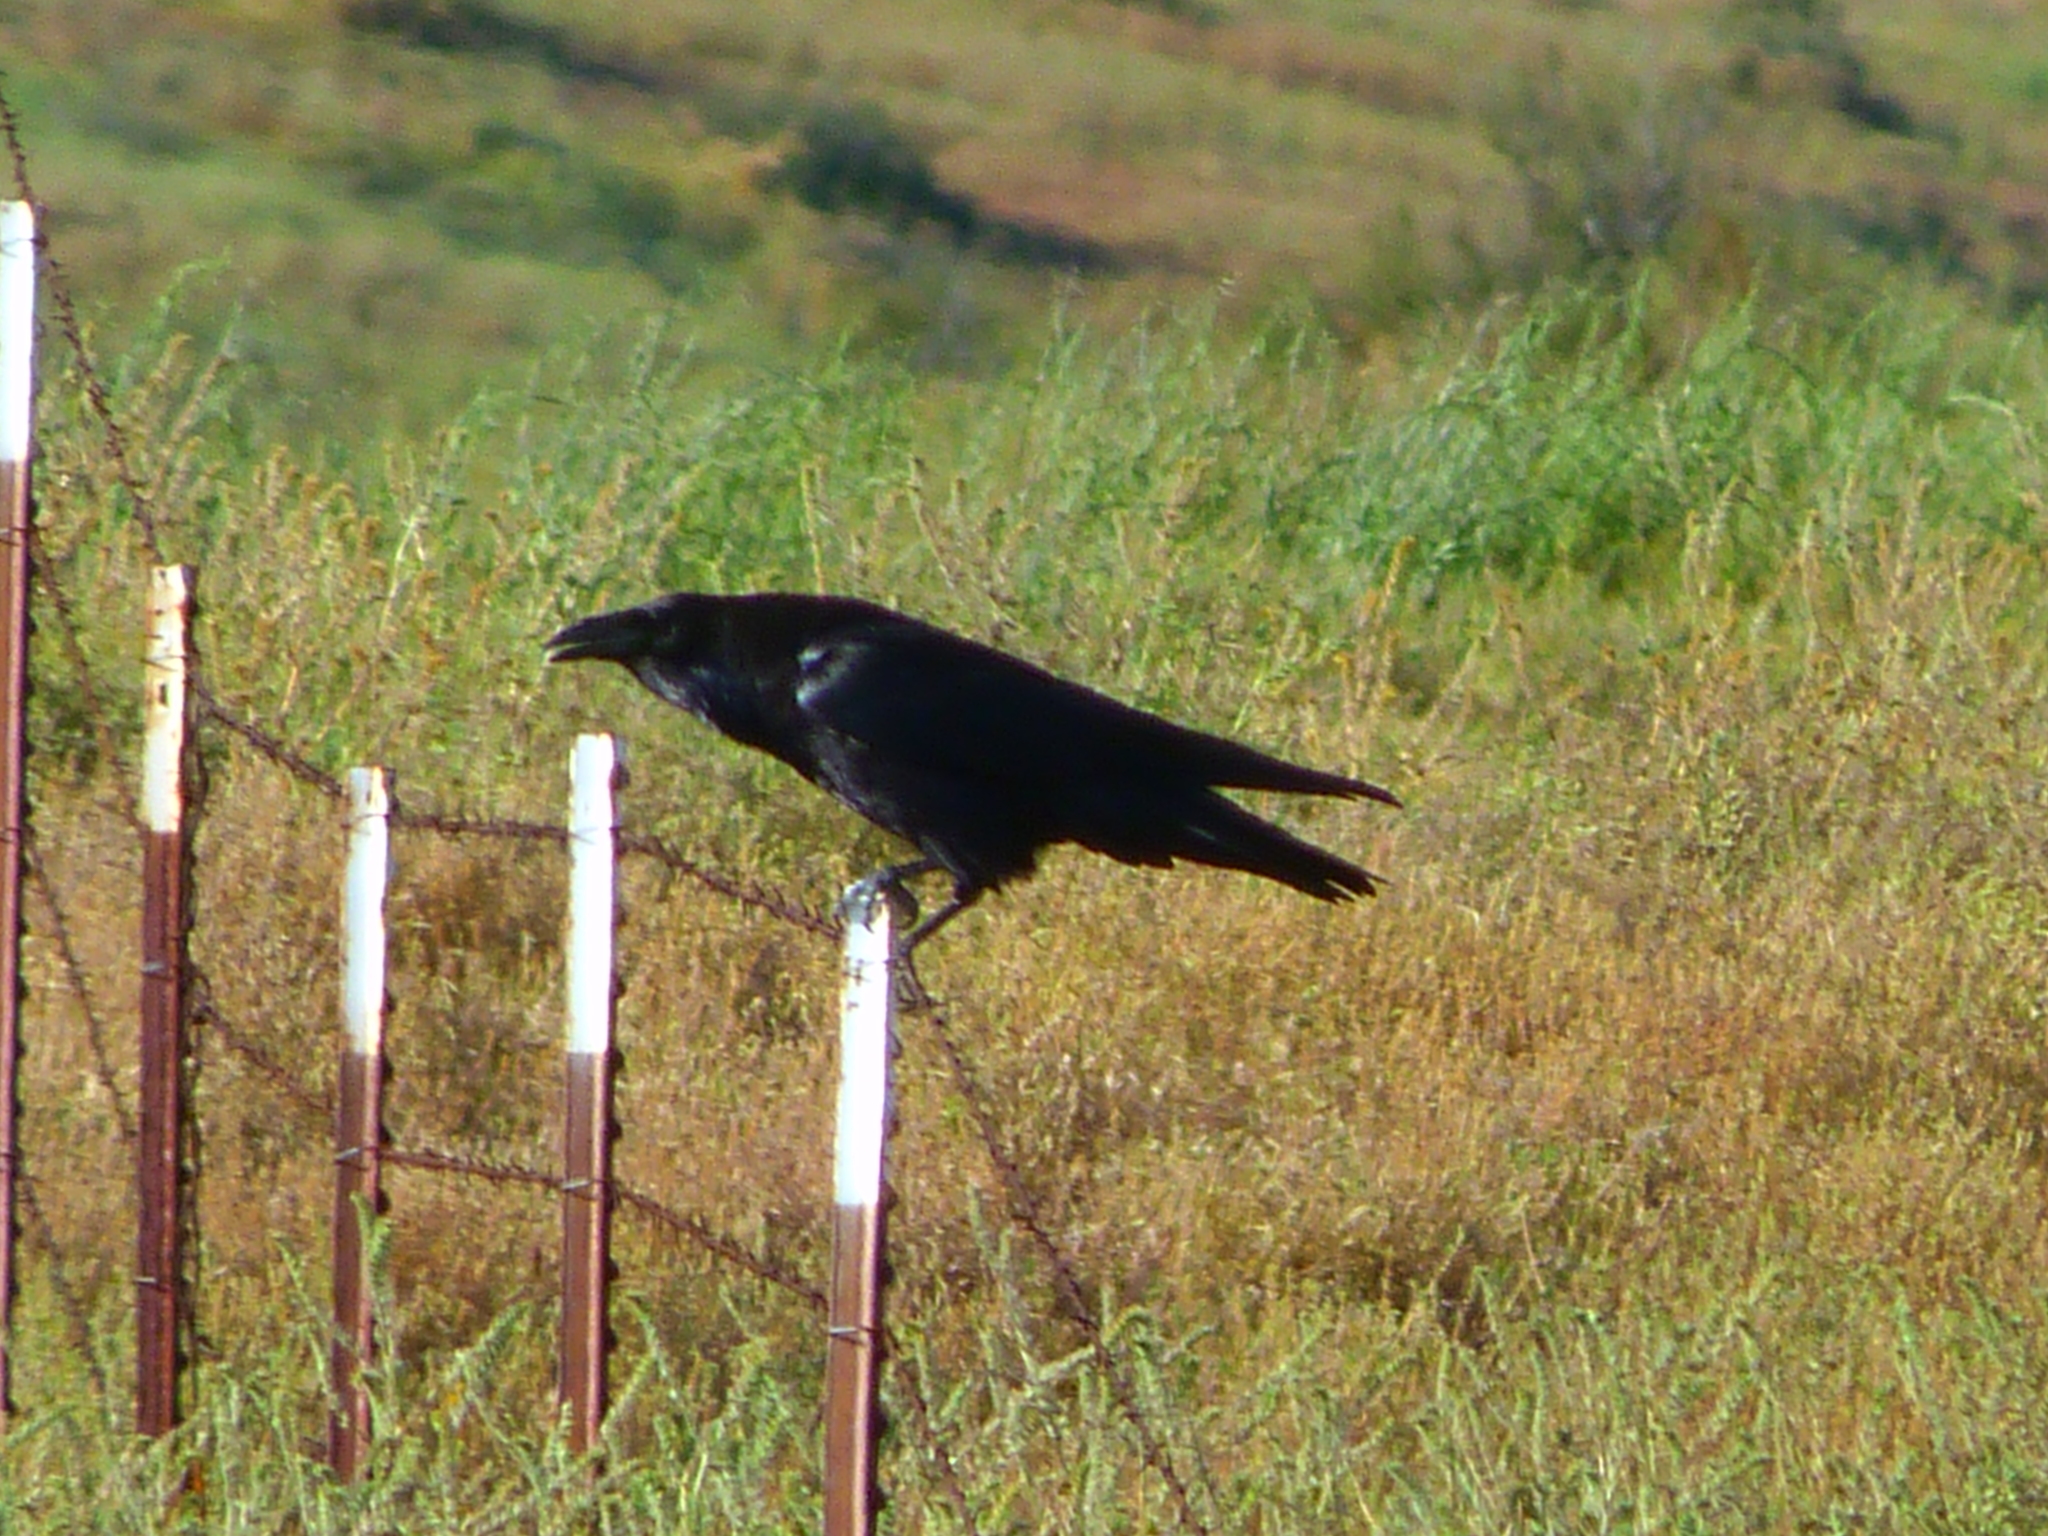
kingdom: Animalia
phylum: Chordata
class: Aves
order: Passeriformes
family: Corvidae
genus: Corvus
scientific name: Corvus corax
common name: Common raven
